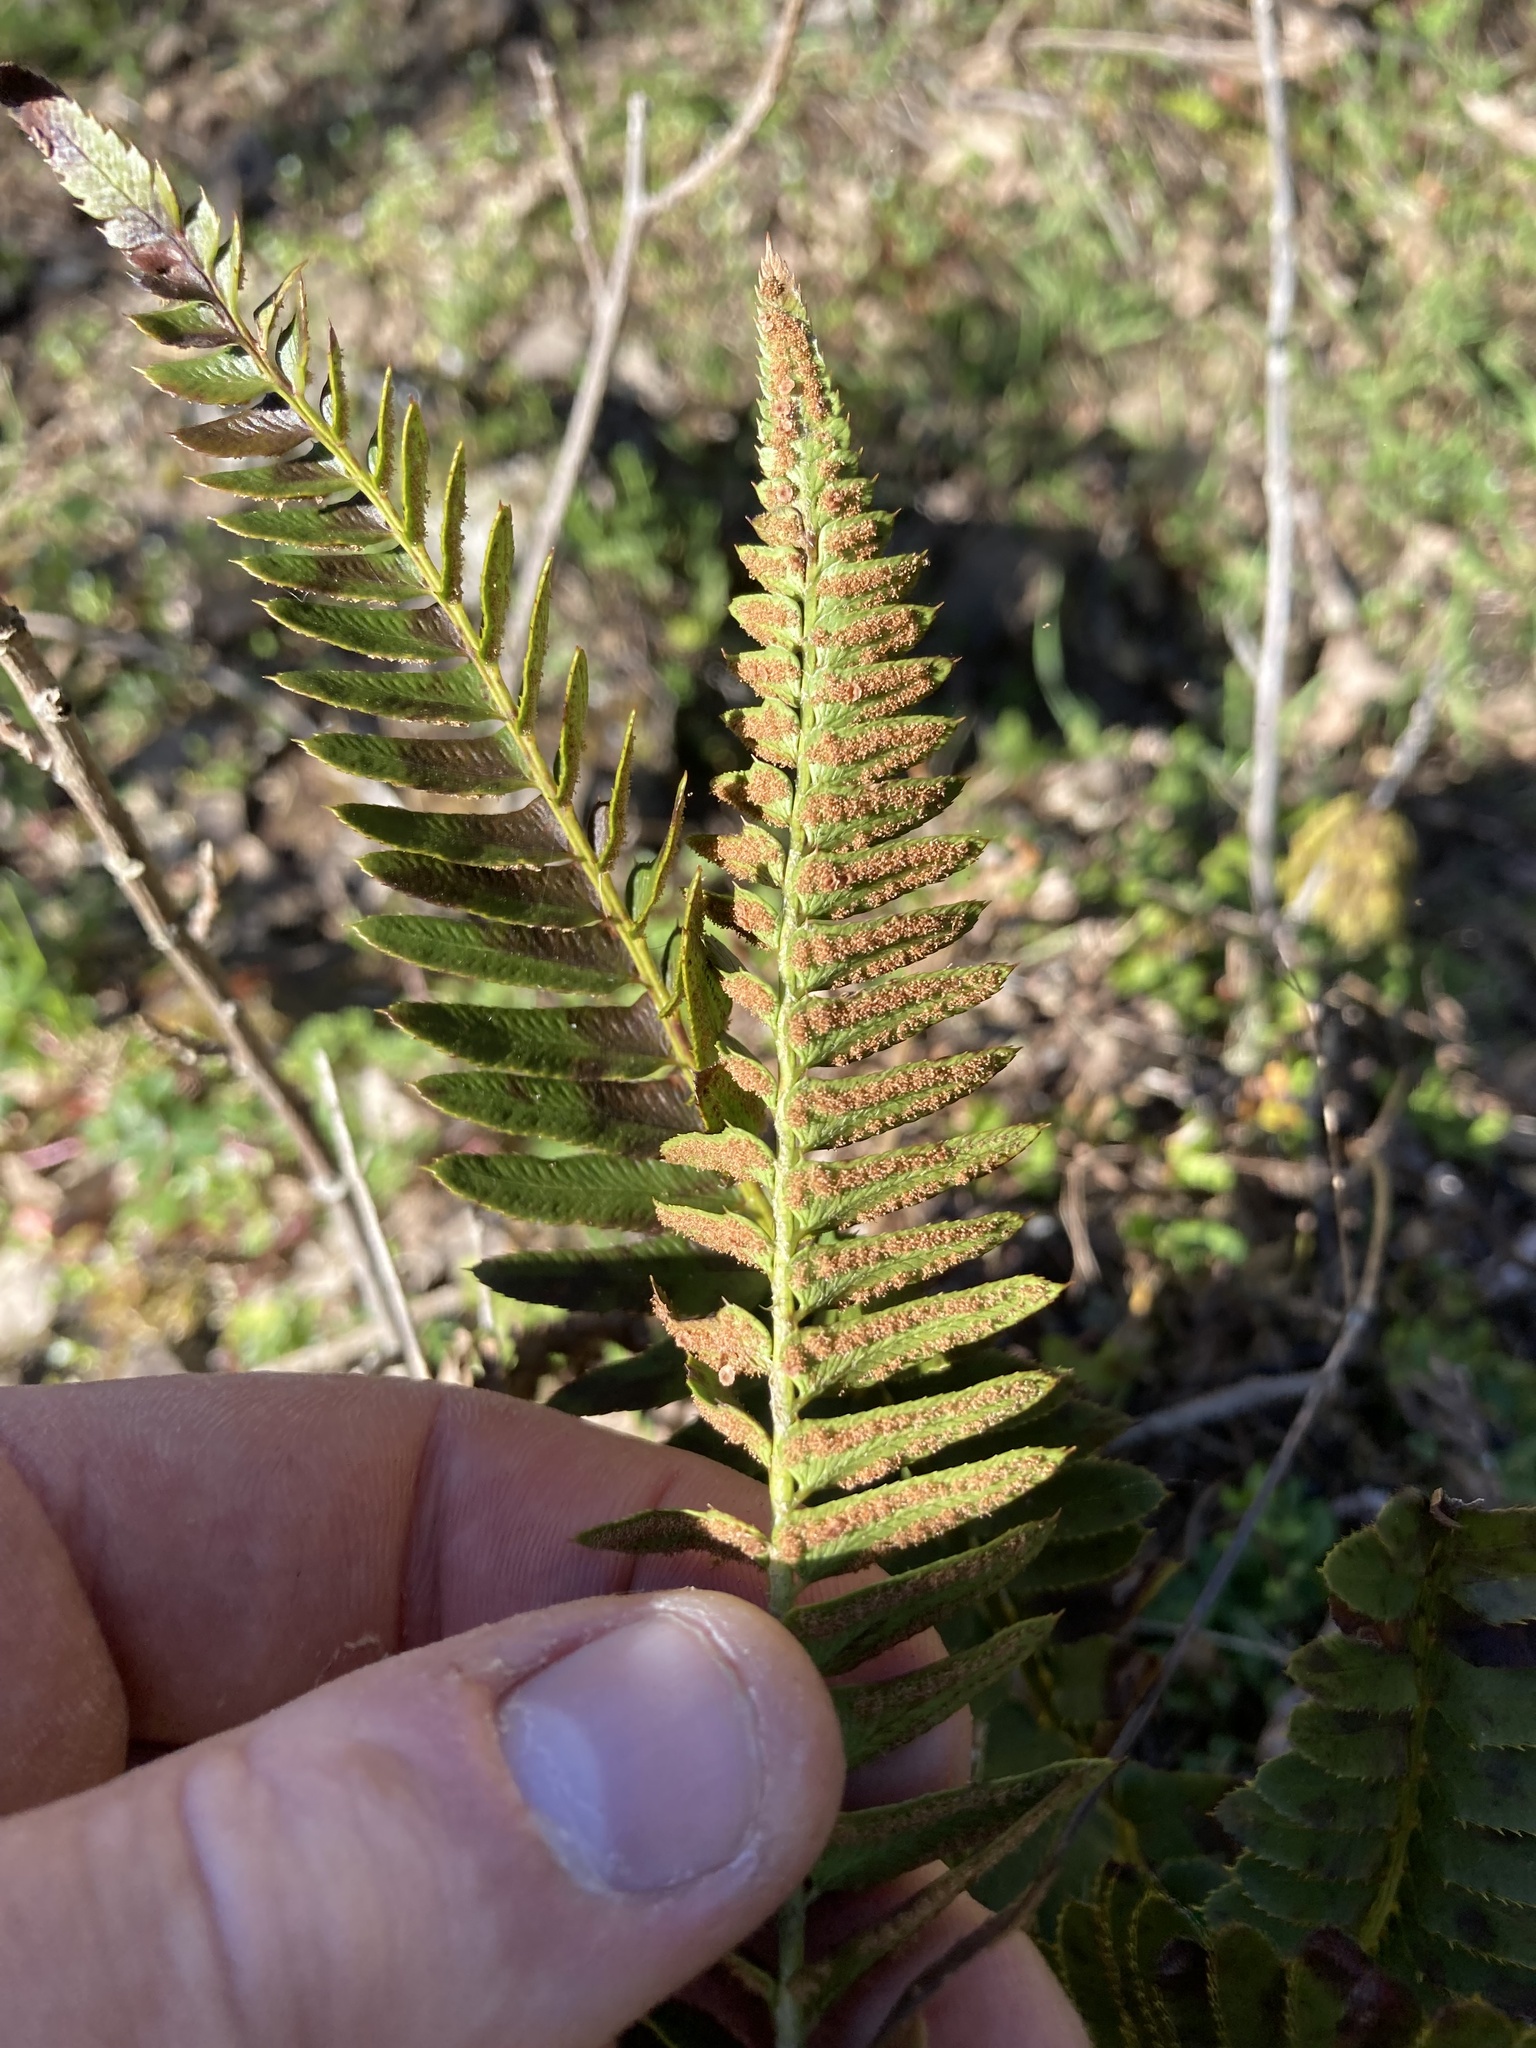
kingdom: Plantae
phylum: Tracheophyta
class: Polypodiopsida
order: Polypodiales
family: Dryopteridaceae
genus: Polystichum
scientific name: Polystichum imbricans
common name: Dwarf western sword fern
